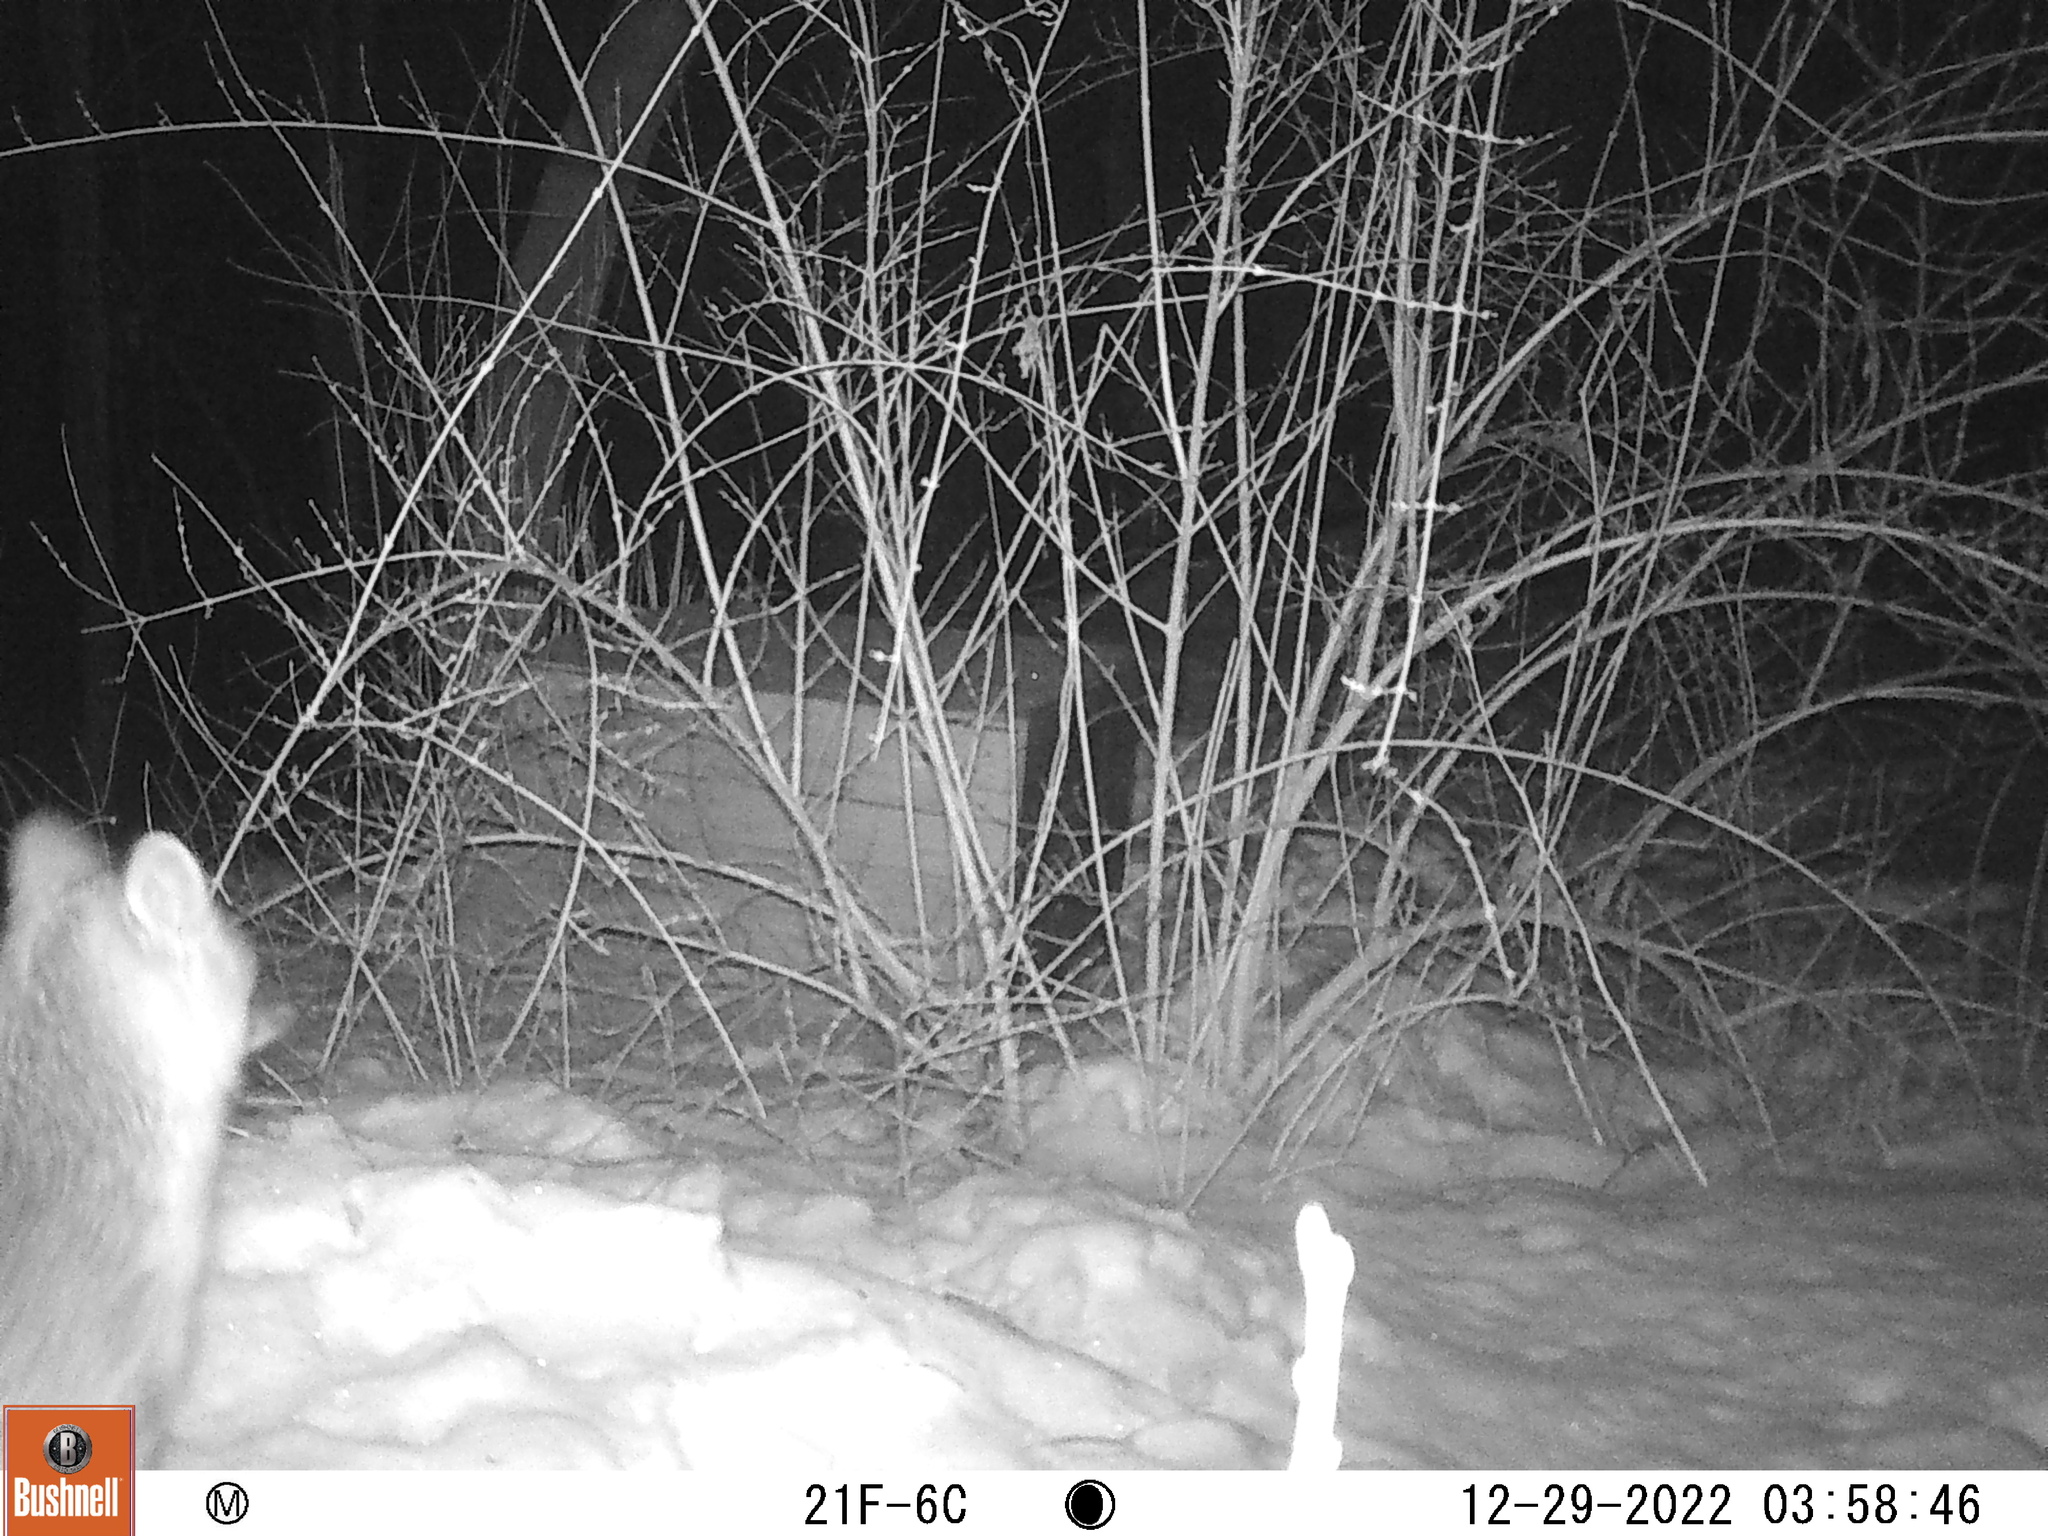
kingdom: Animalia
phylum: Chordata
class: Mammalia
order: Carnivora
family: Canidae
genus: Urocyon
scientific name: Urocyon cinereoargenteus
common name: Gray fox
